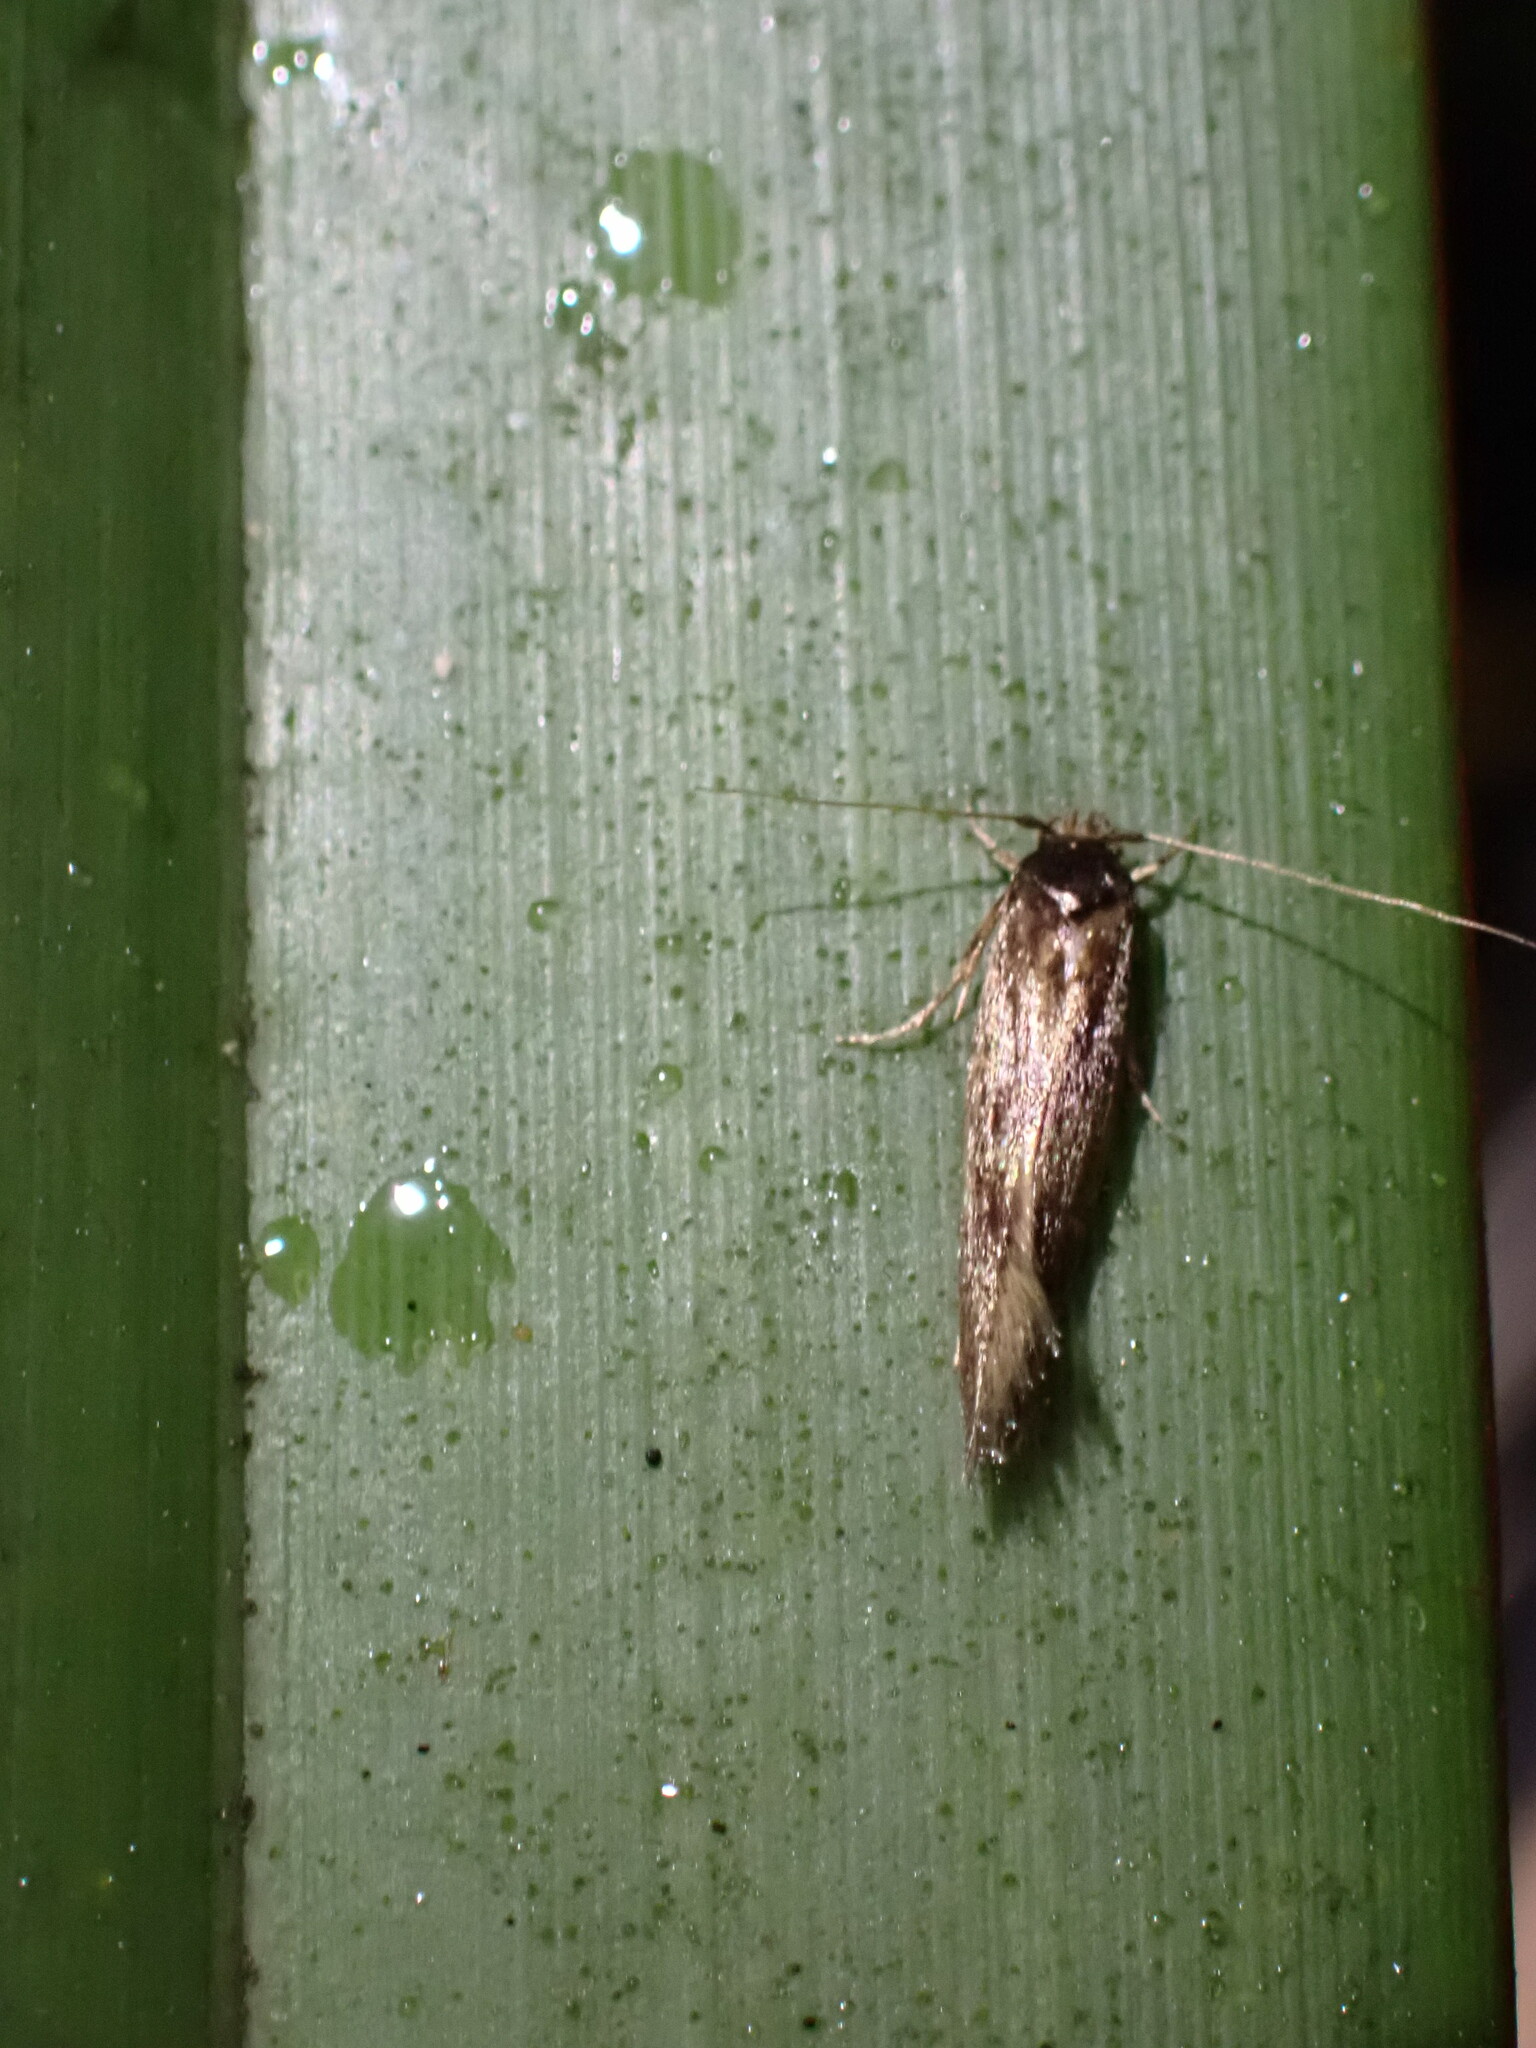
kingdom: Animalia
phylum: Arthropoda
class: Insecta
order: Lepidoptera
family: Tineidae
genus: Opogona
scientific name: Opogona omoscopa
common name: Moth
